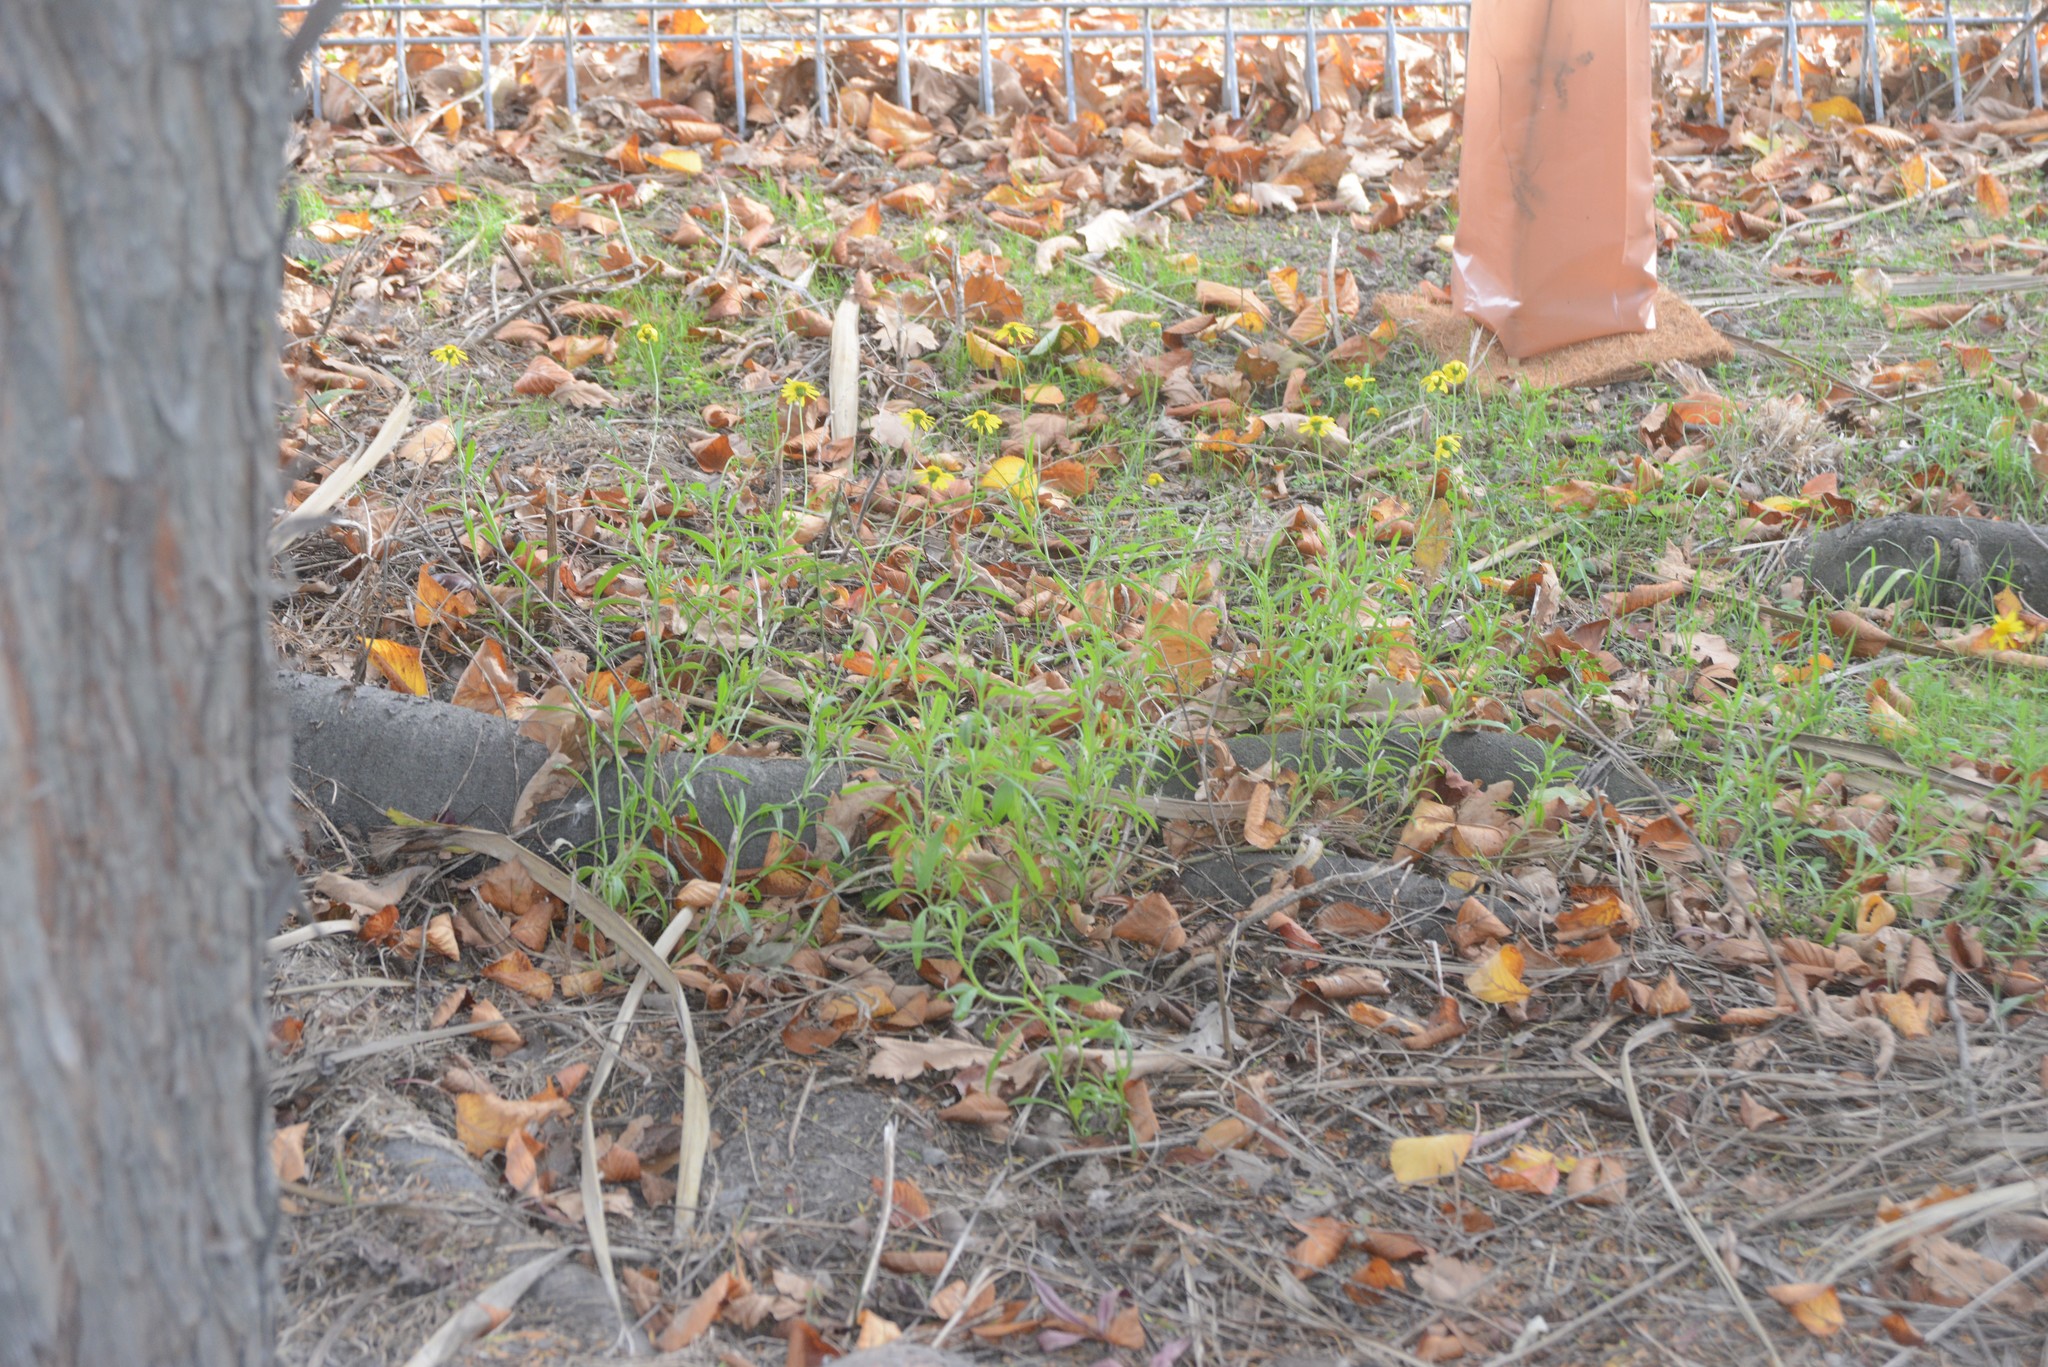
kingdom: Plantae
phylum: Tracheophyta
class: Magnoliopsida
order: Asterales
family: Asteraceae
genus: Senecio
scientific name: Senecio skirrhodon
